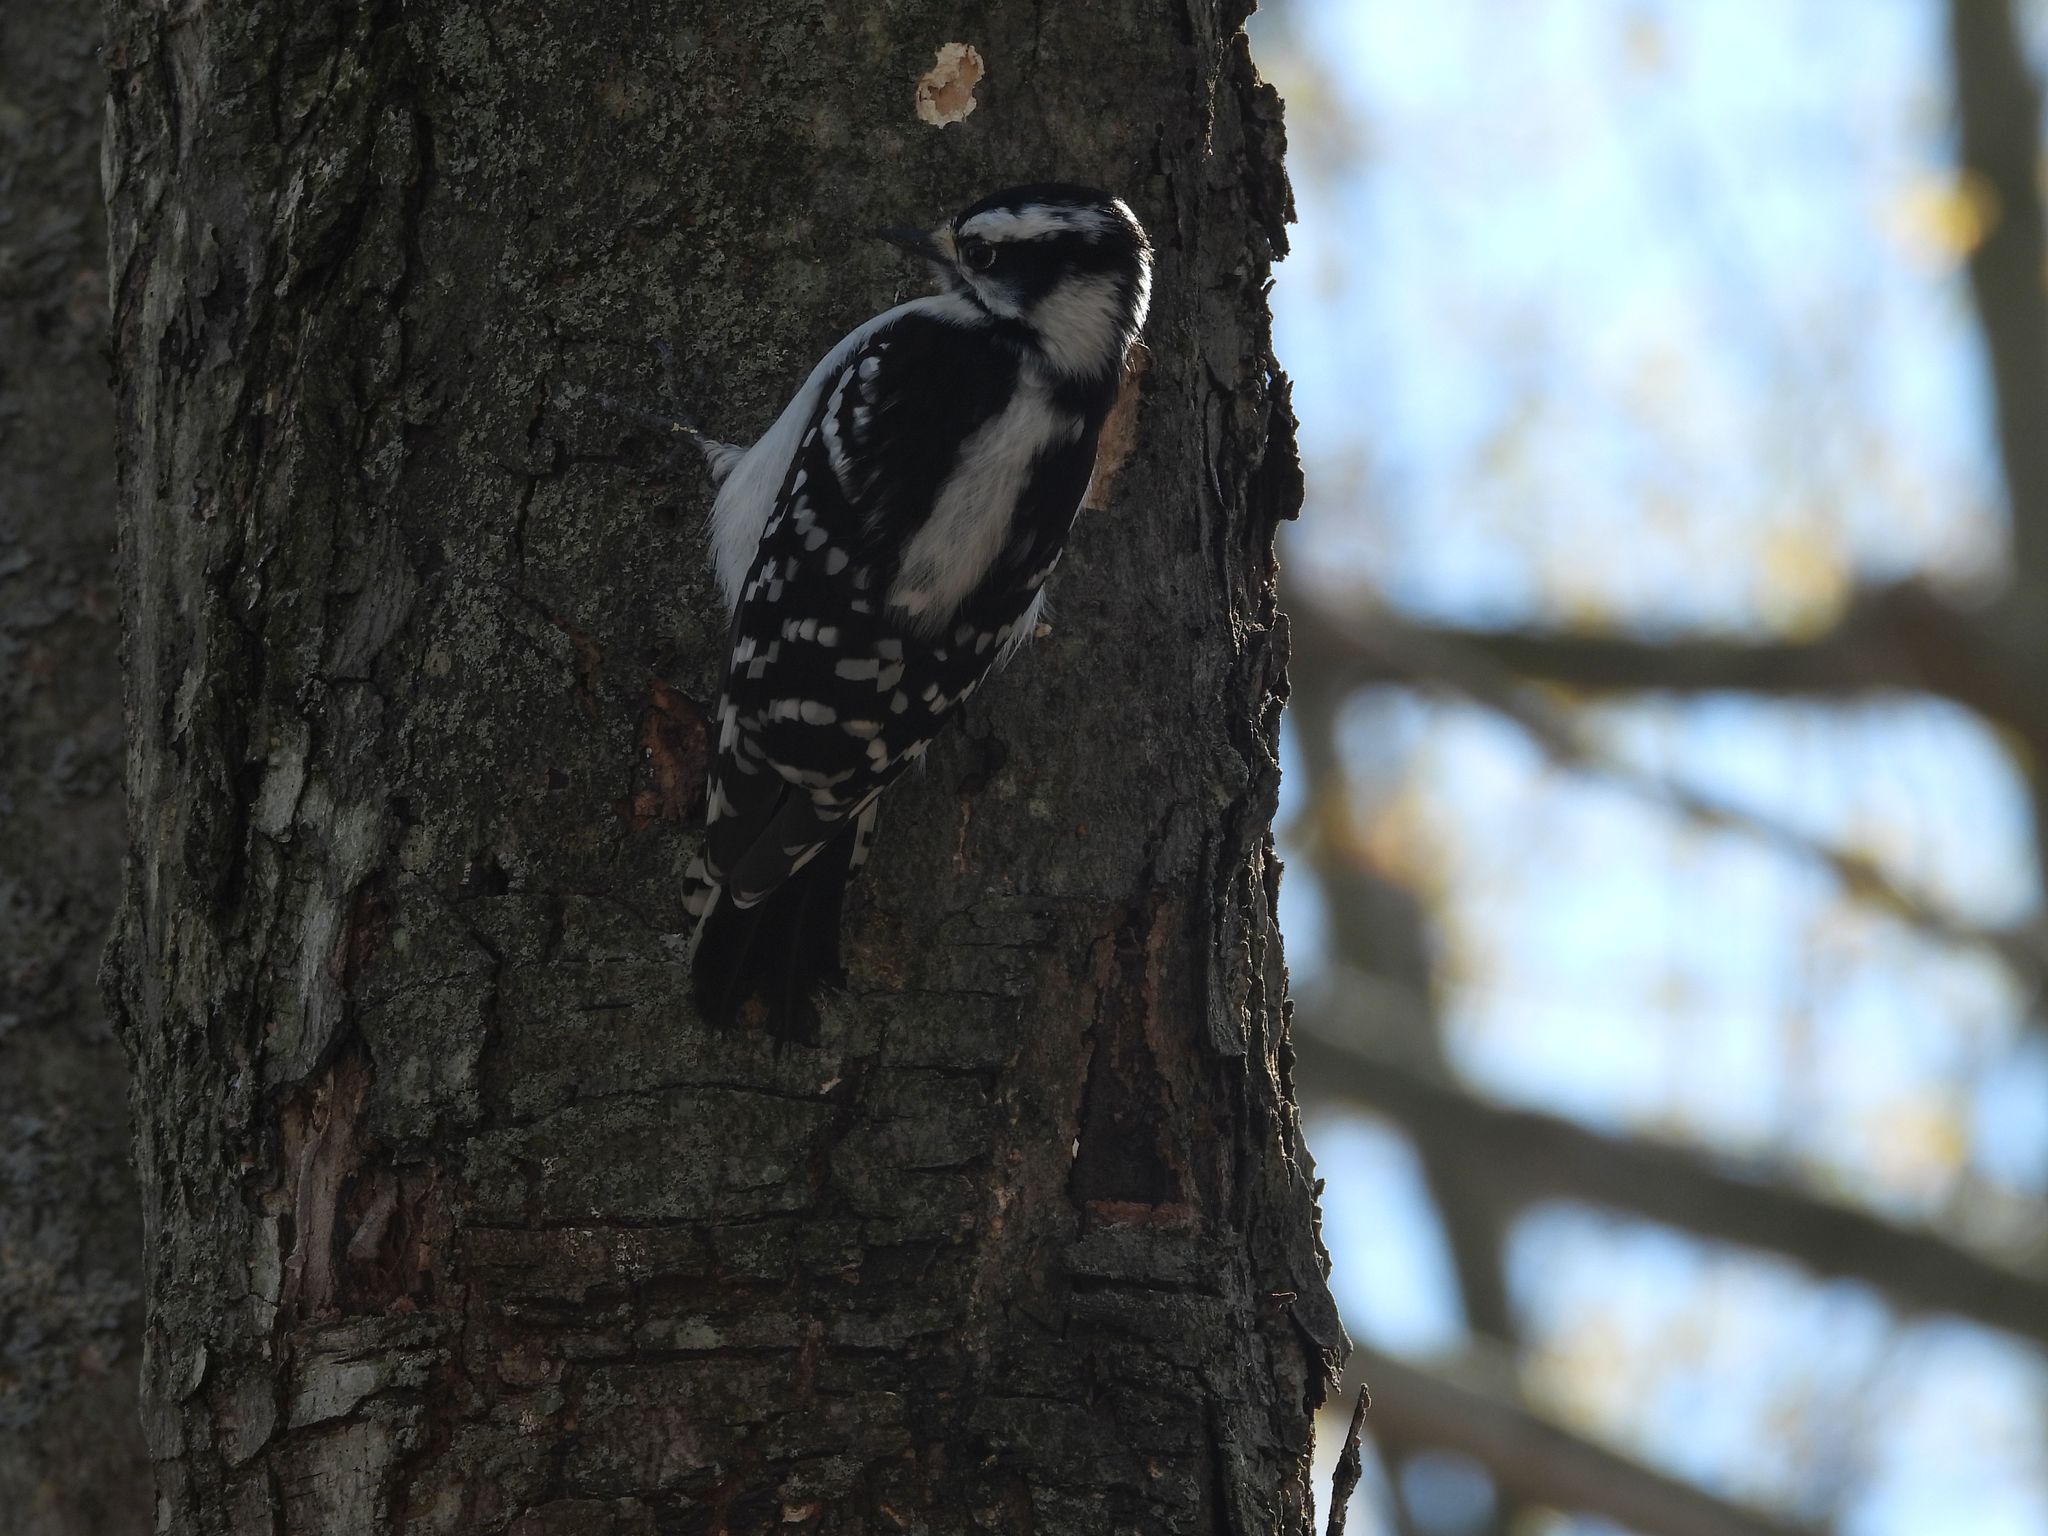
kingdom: Animalia
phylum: Chordata
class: Aves
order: Piciformes
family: Picidae
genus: Dryobates
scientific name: Dryobates pubescens
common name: Downy woodpecker
